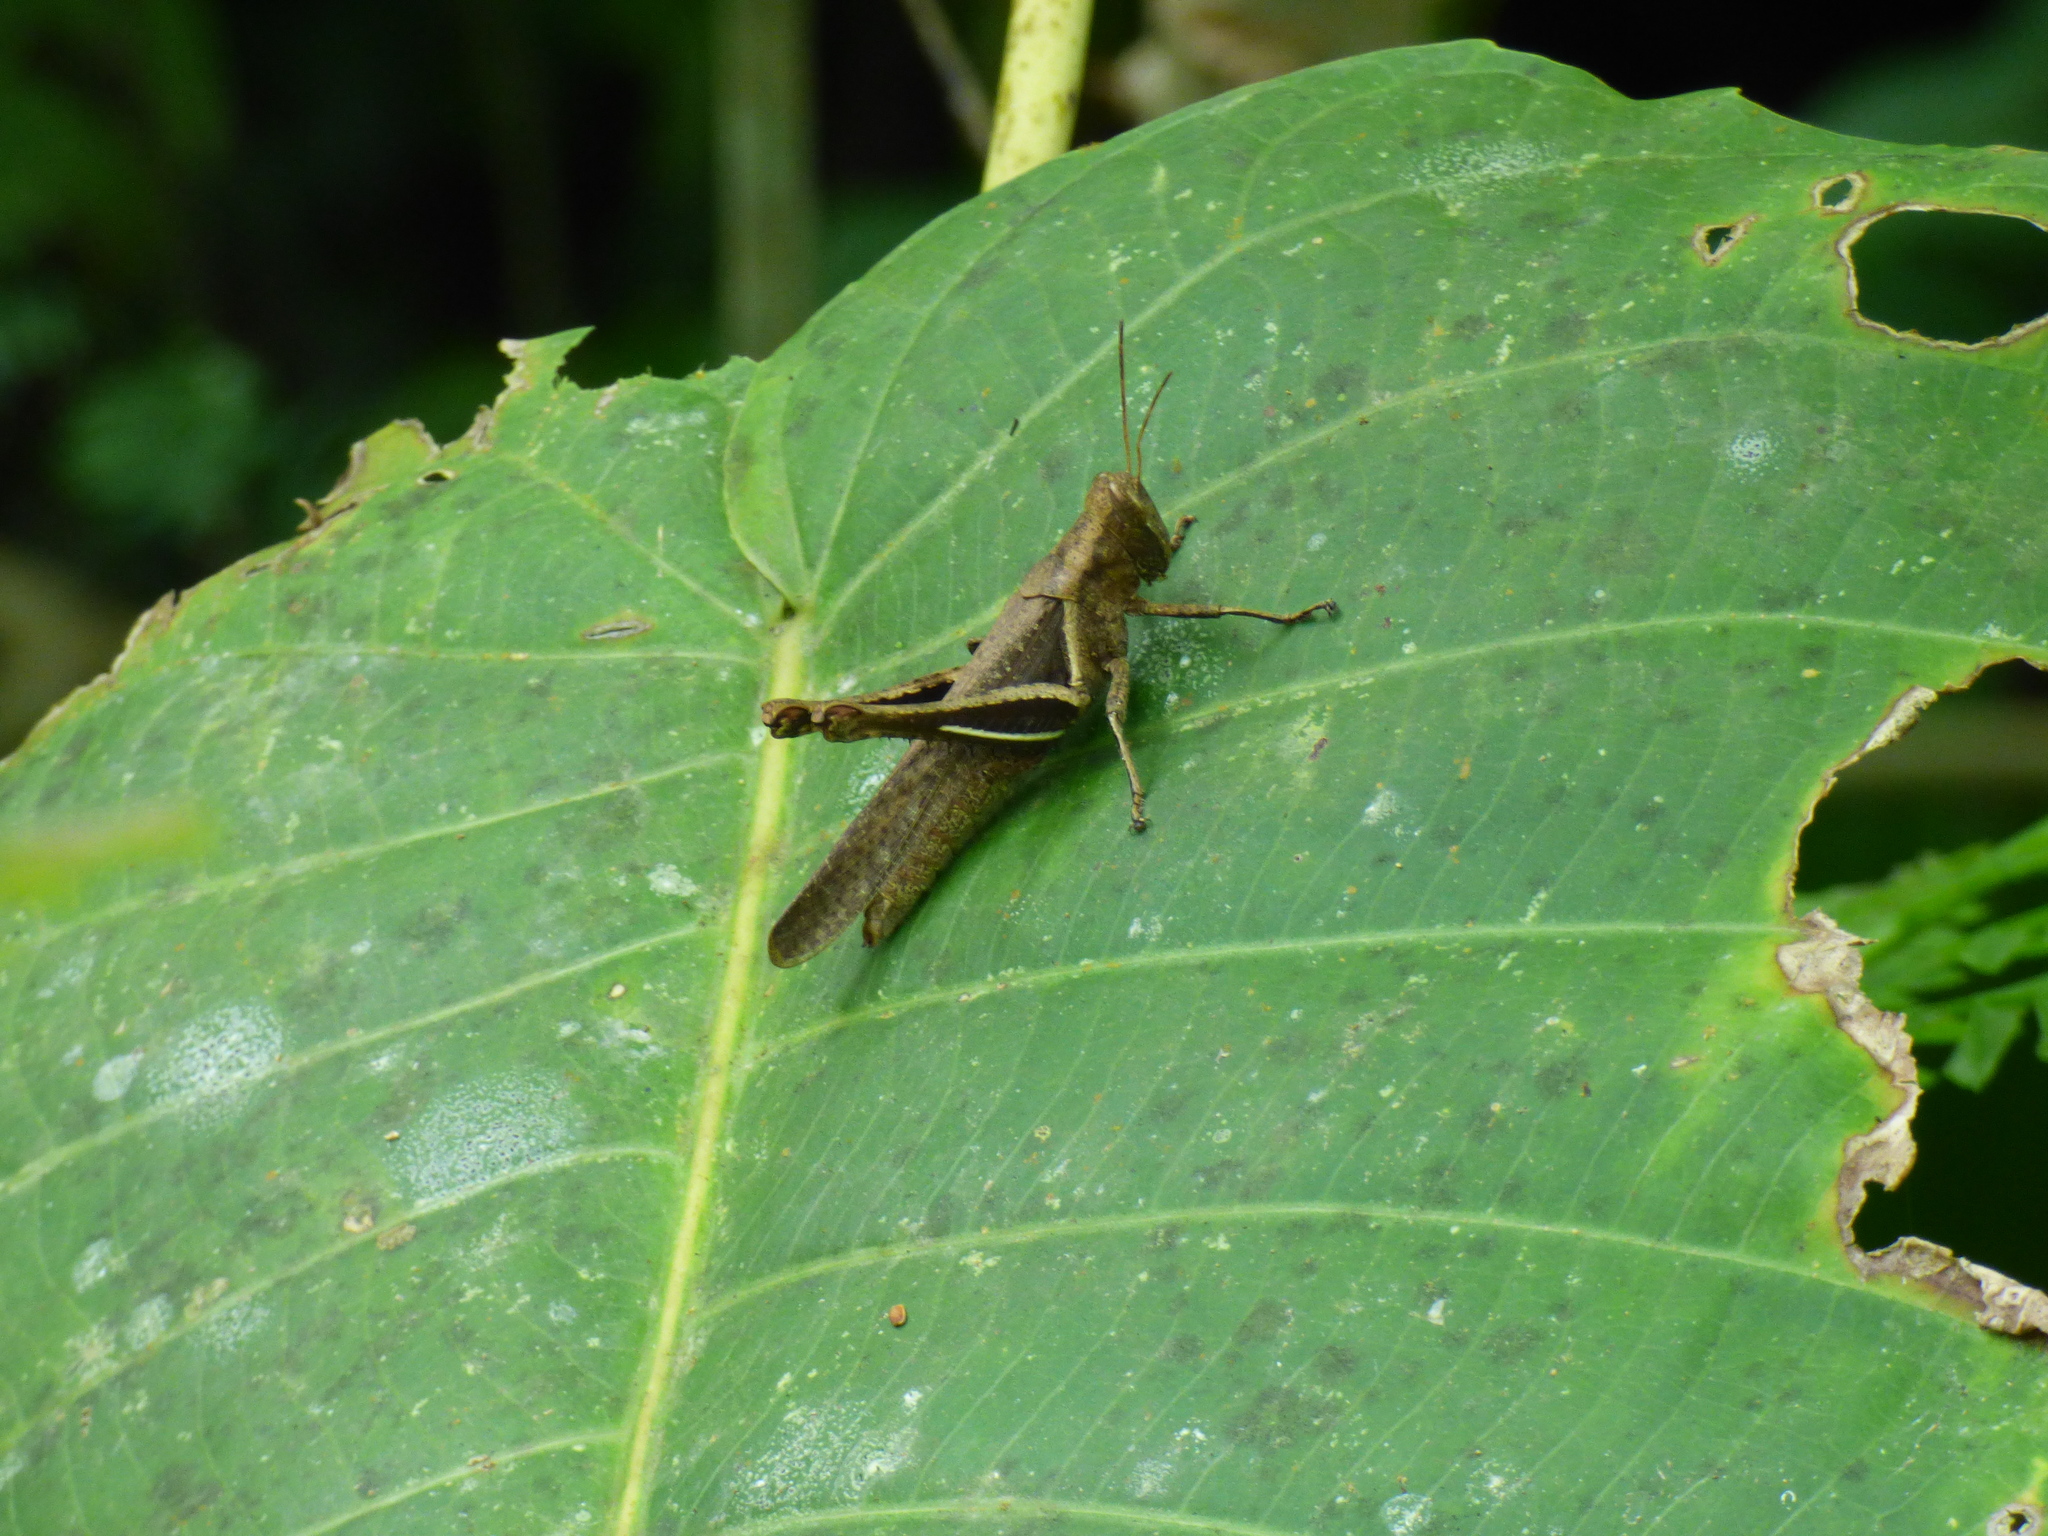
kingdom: Animalia
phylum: Arthropoda
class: Insecta
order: Orthoptera
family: Acrididae
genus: Abracris
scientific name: Abracris flavolineata
